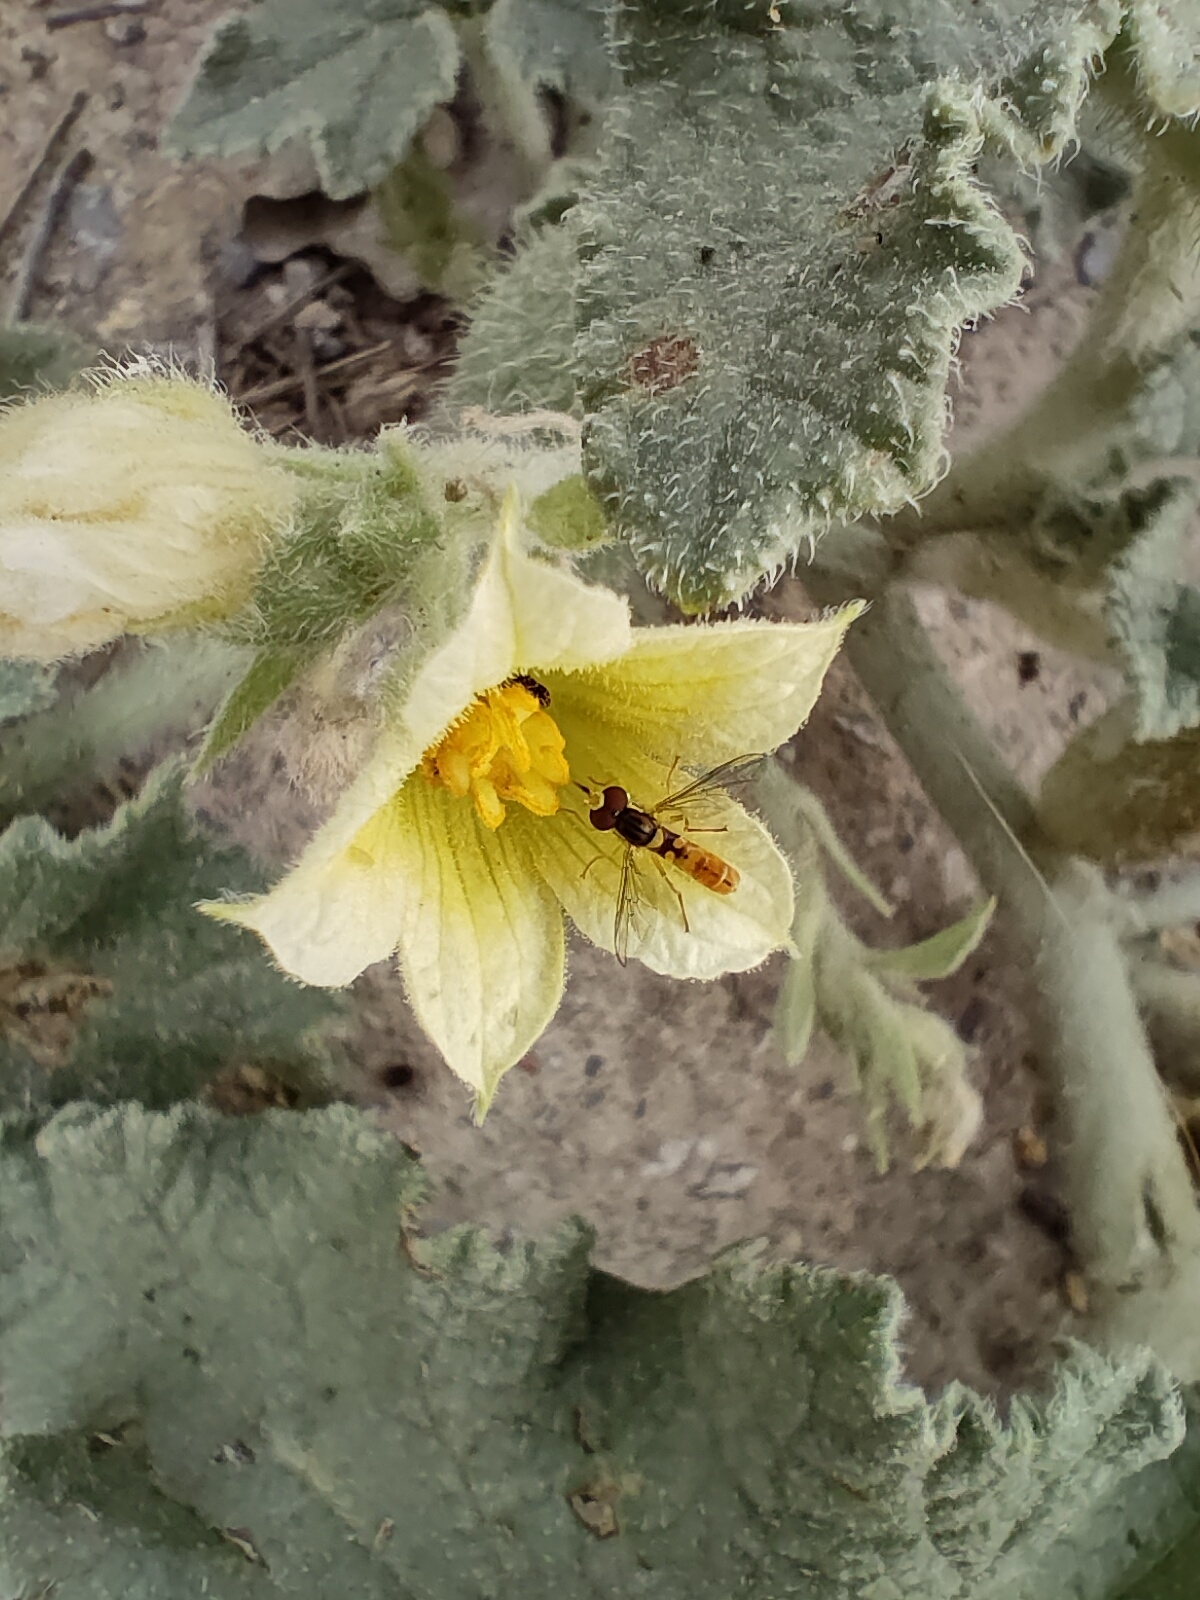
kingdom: Animalia
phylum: Arthropoda
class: Insecta
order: Diptera
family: Syrphidae
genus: Sphaerophoria
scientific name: Sphaerophoria rueppellii
